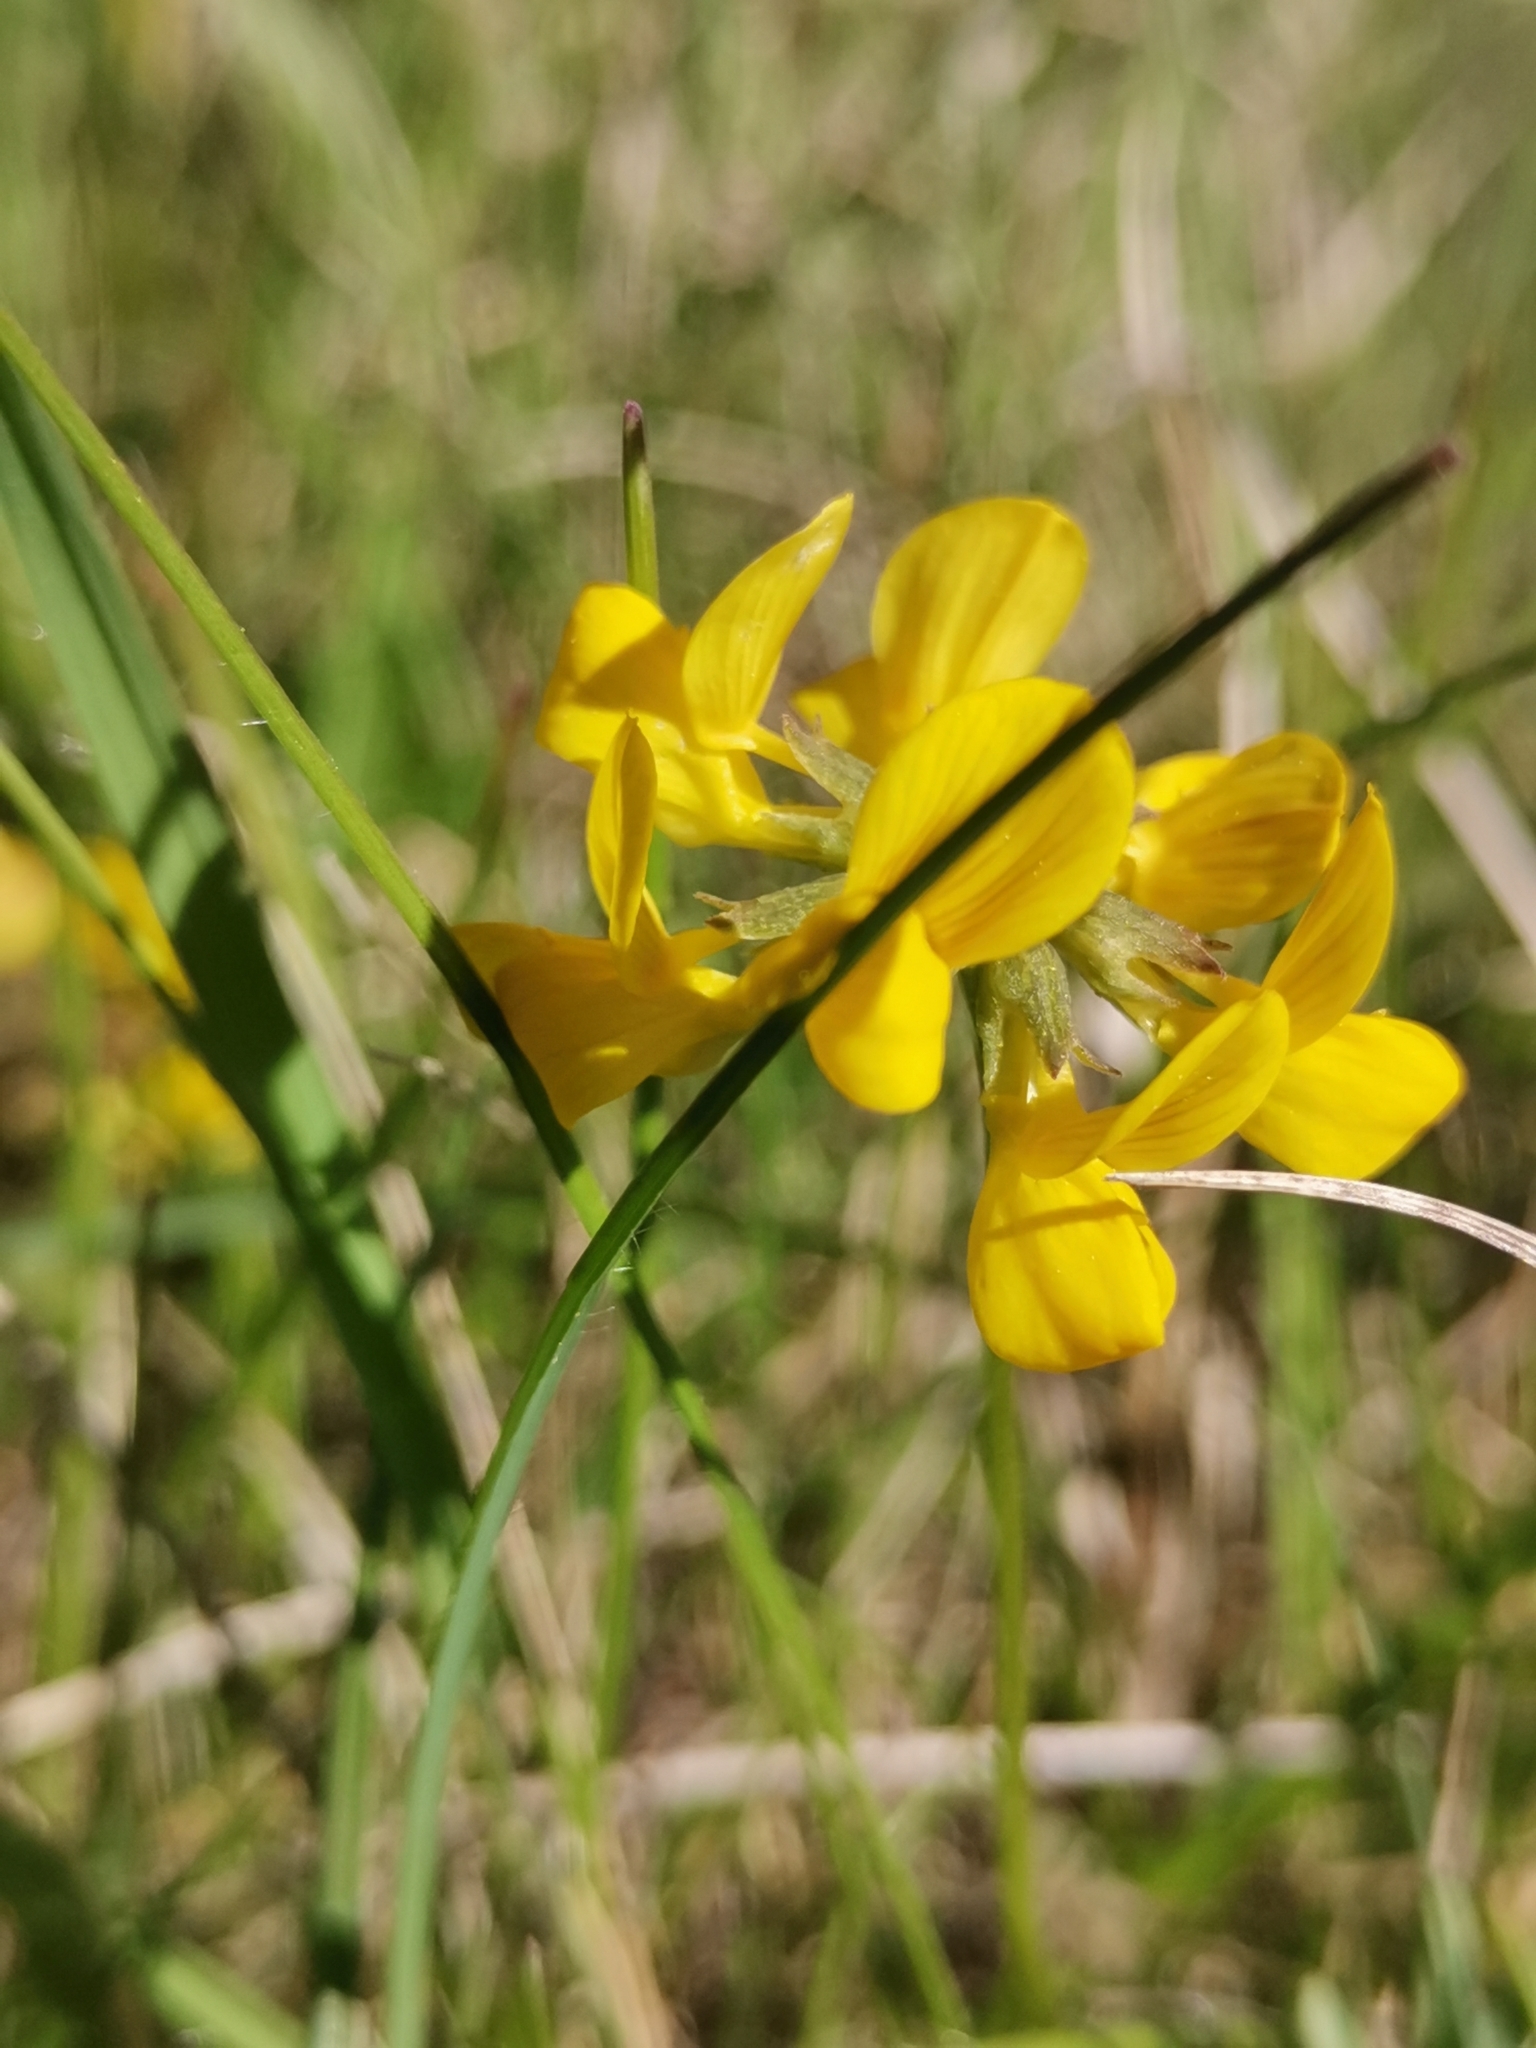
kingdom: Plantae
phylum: Tracheophyta
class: Magnoliopsida
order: Fabales
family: Fabaceae
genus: Hippocrepis
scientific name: Hippocrepis comosa
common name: Horseshoe vetch
